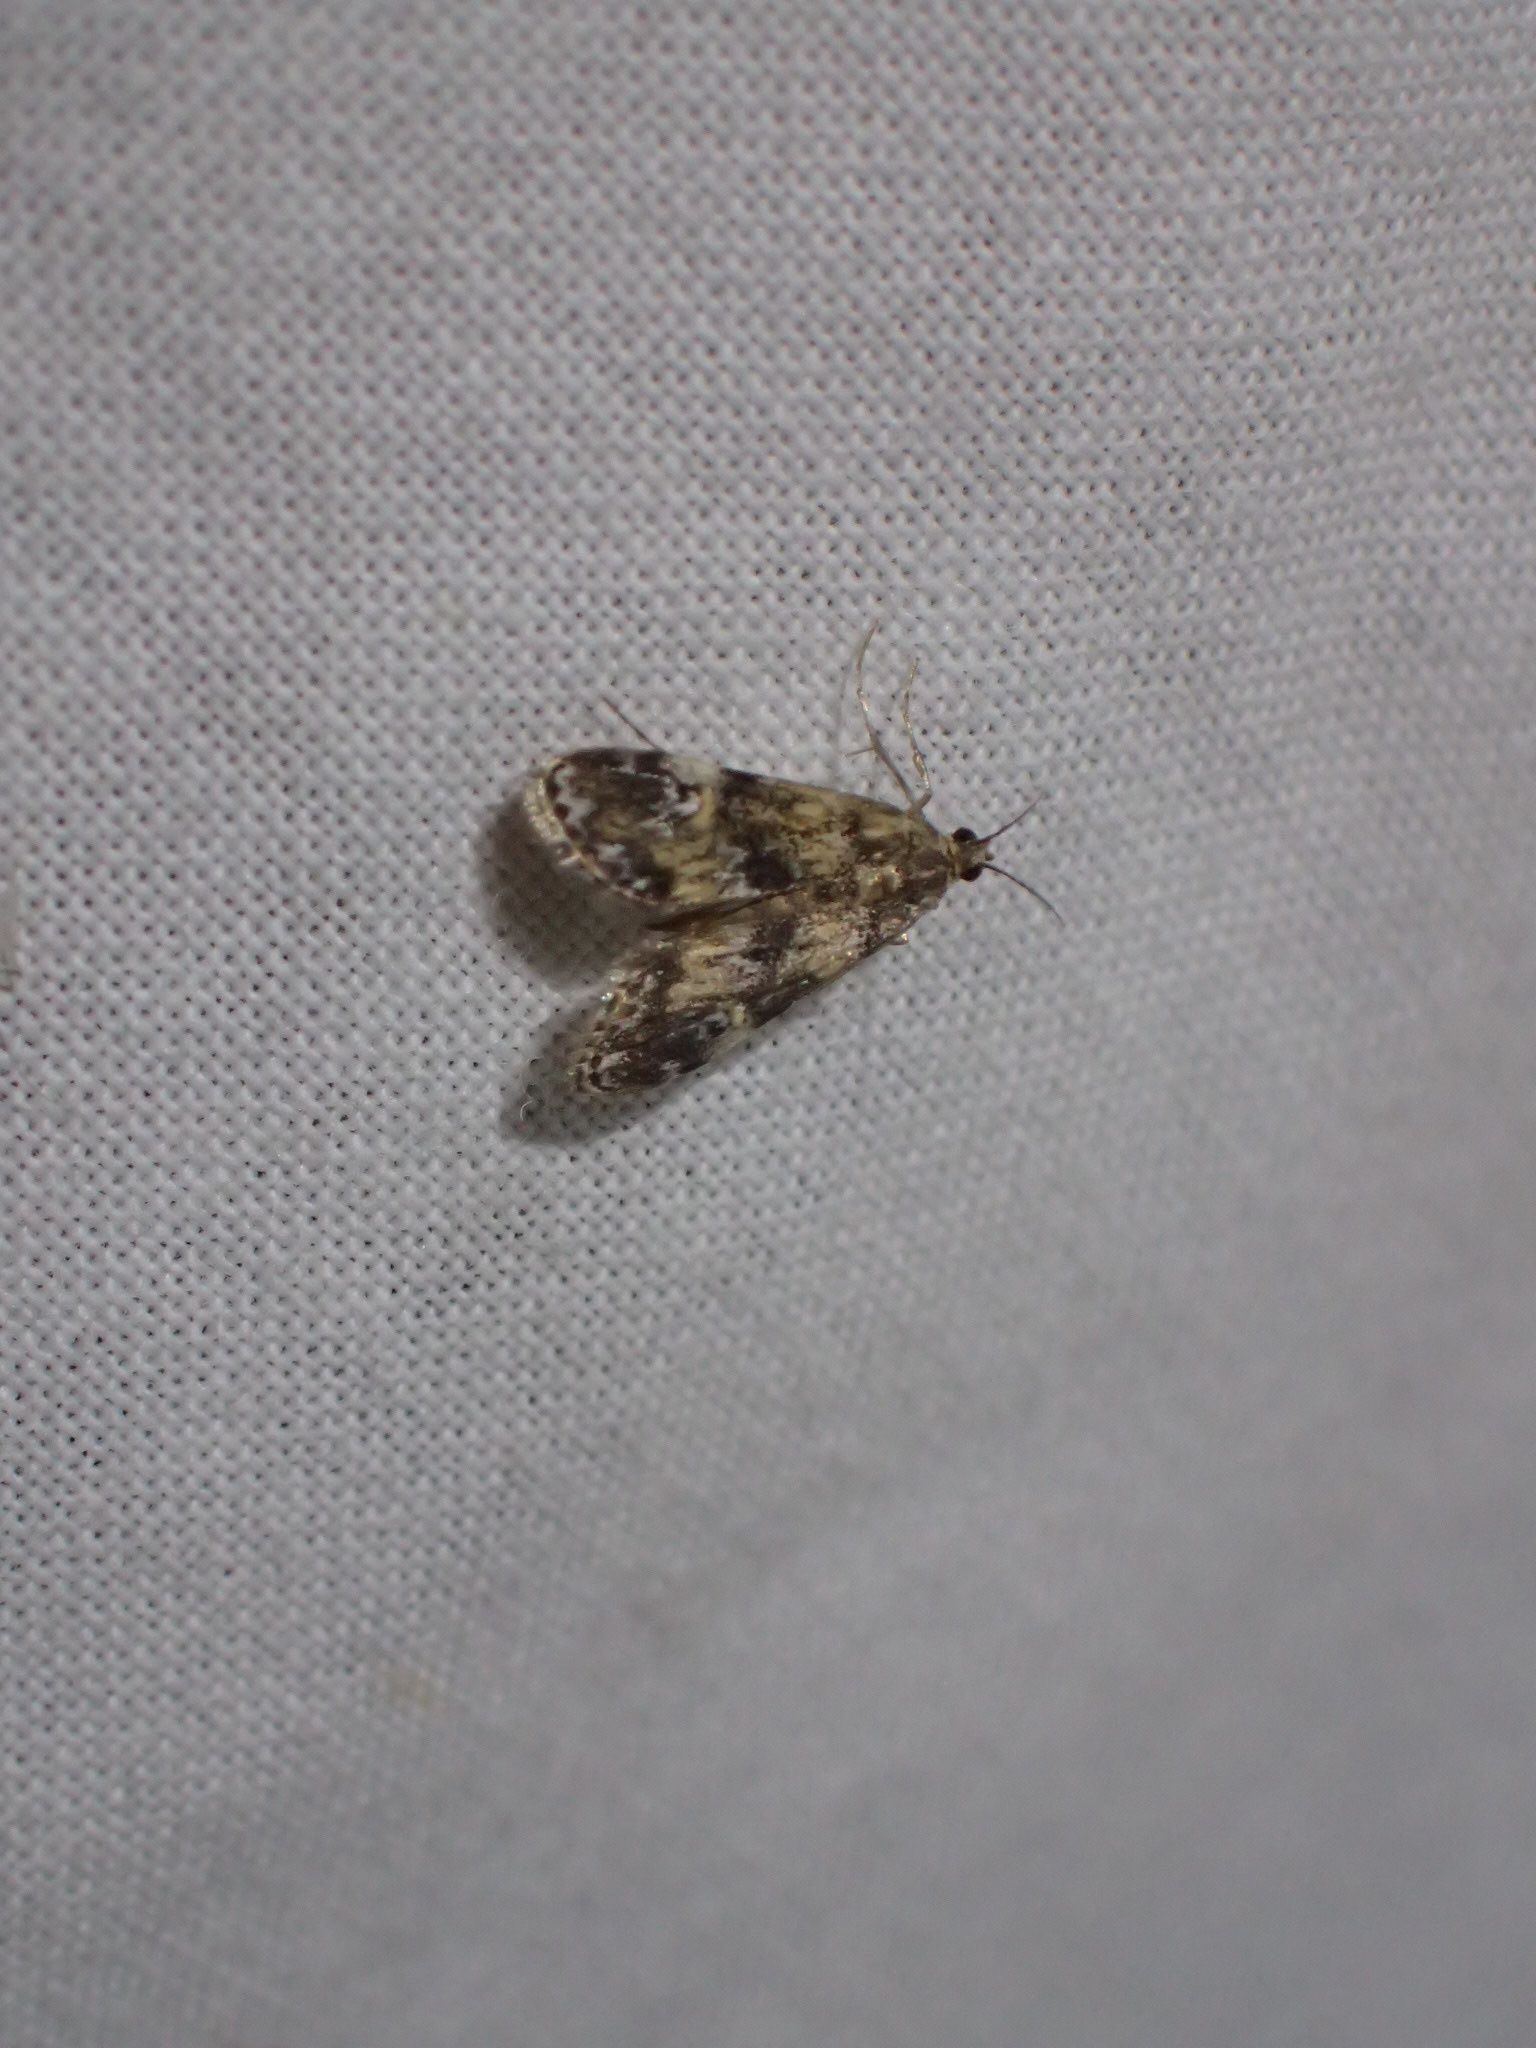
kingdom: Animalia
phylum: Arthropoda
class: Insecta
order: Lepidoptera
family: Crambidae
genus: Elophila
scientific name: Elophila obliteralis
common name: Waterlily leafcutter moth
